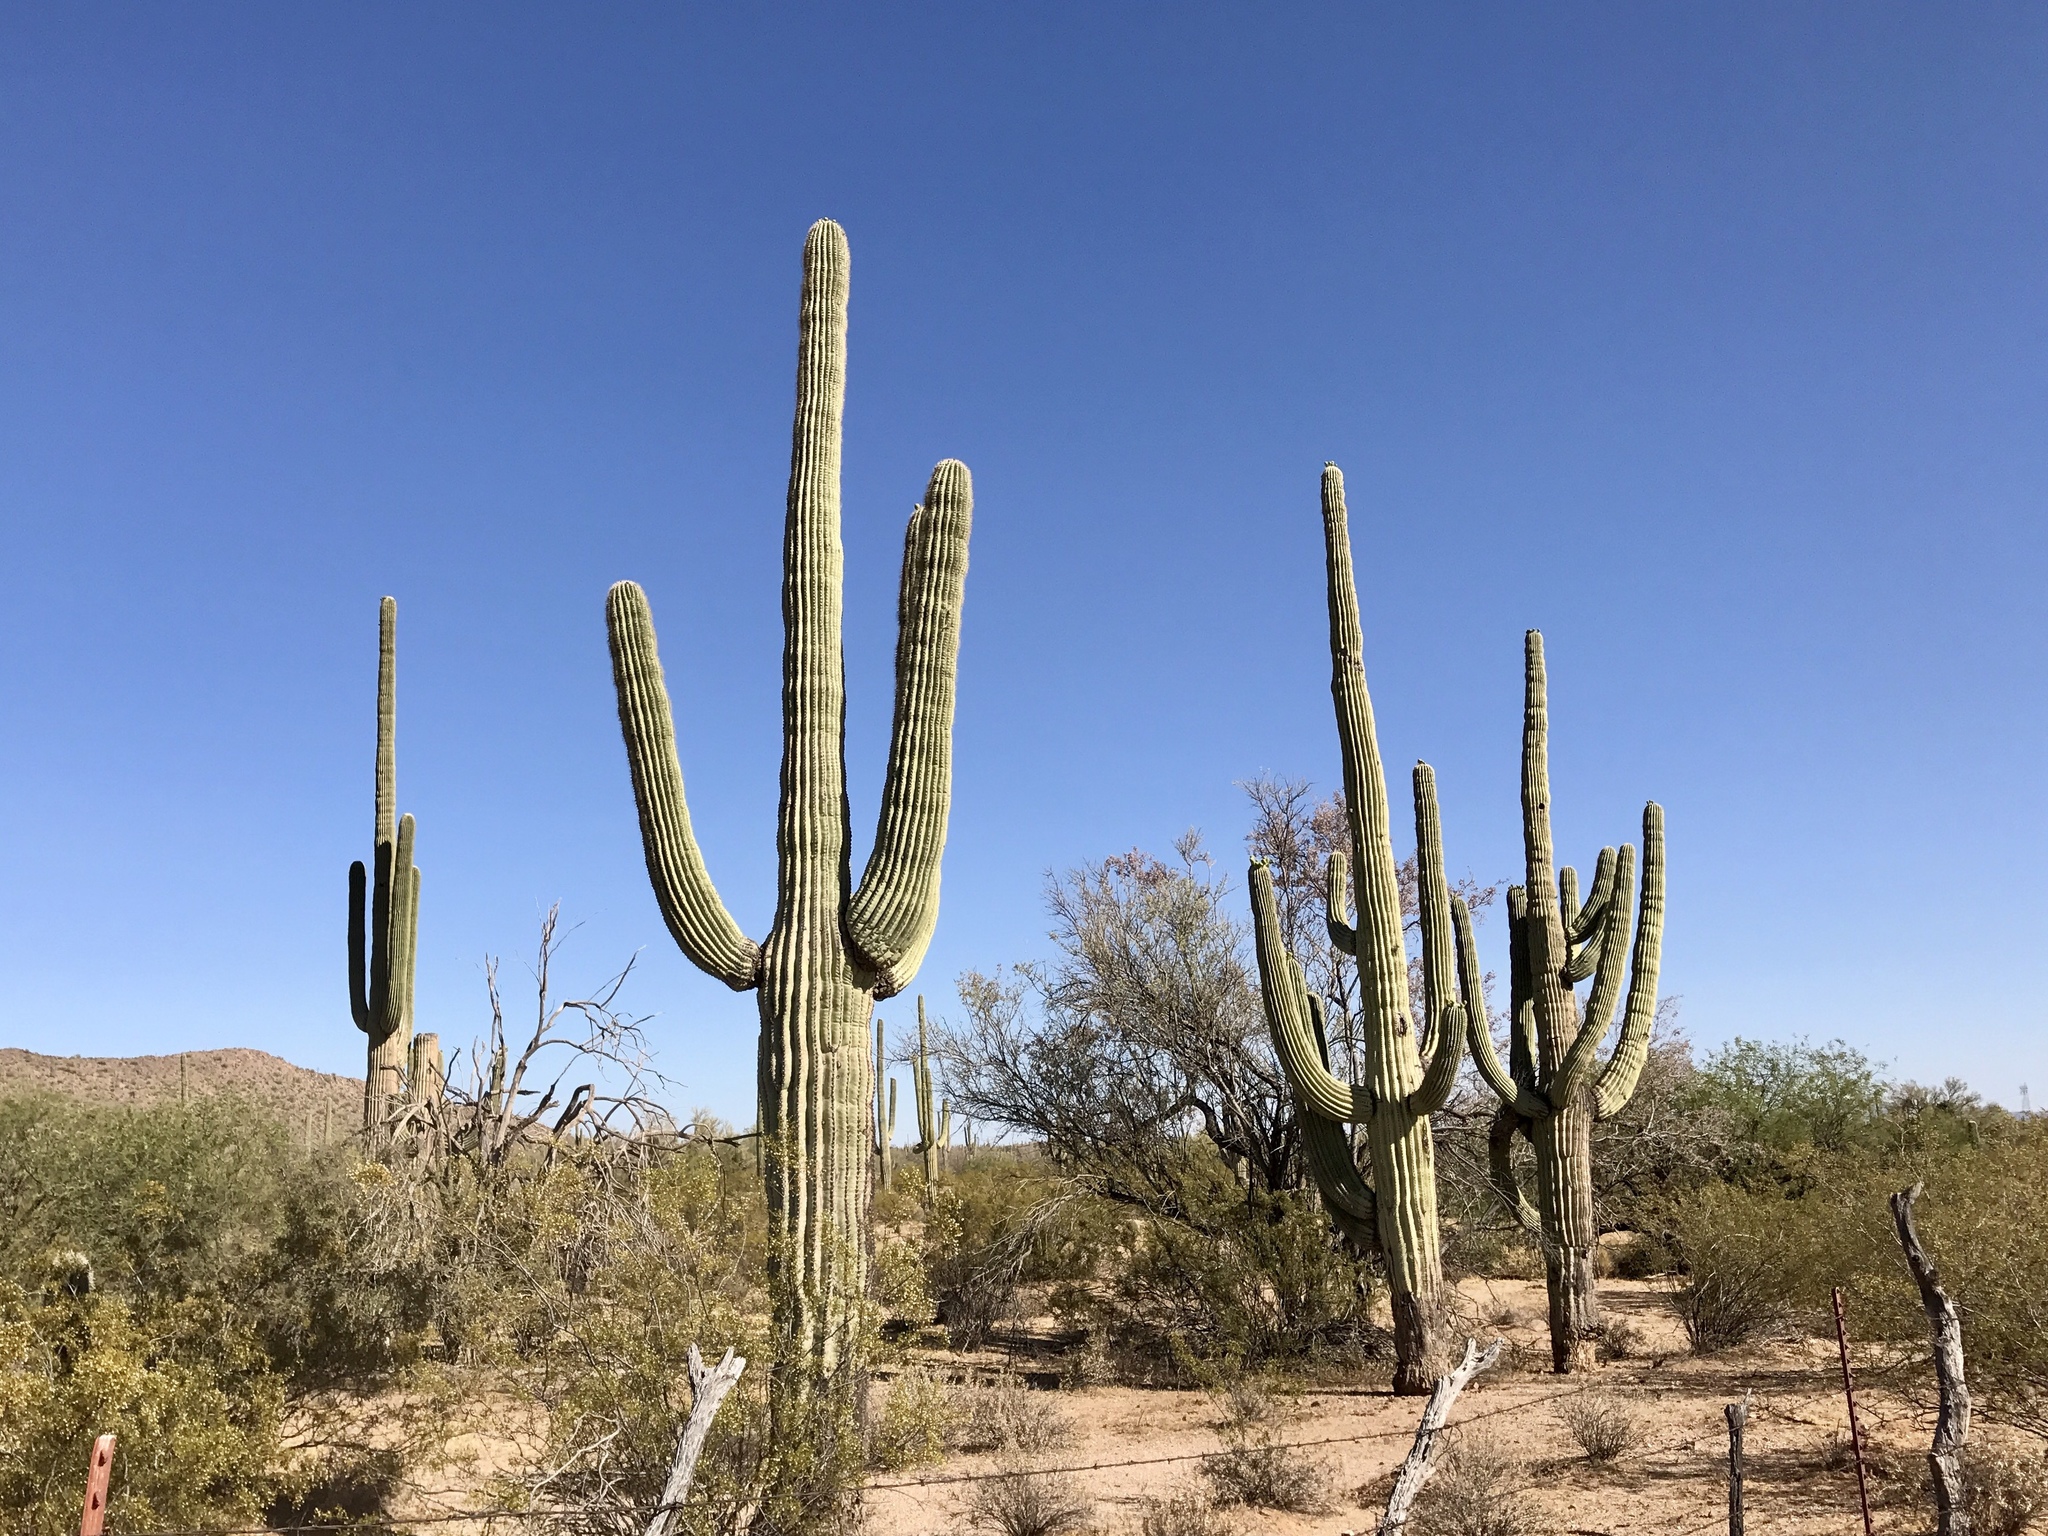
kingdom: Plantae
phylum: Tracheophyta
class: Magnoliopsida
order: Caryophyllales
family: Cactaceae
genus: Carnegiea
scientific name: Carnegiea gigantea
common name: Saguaro
